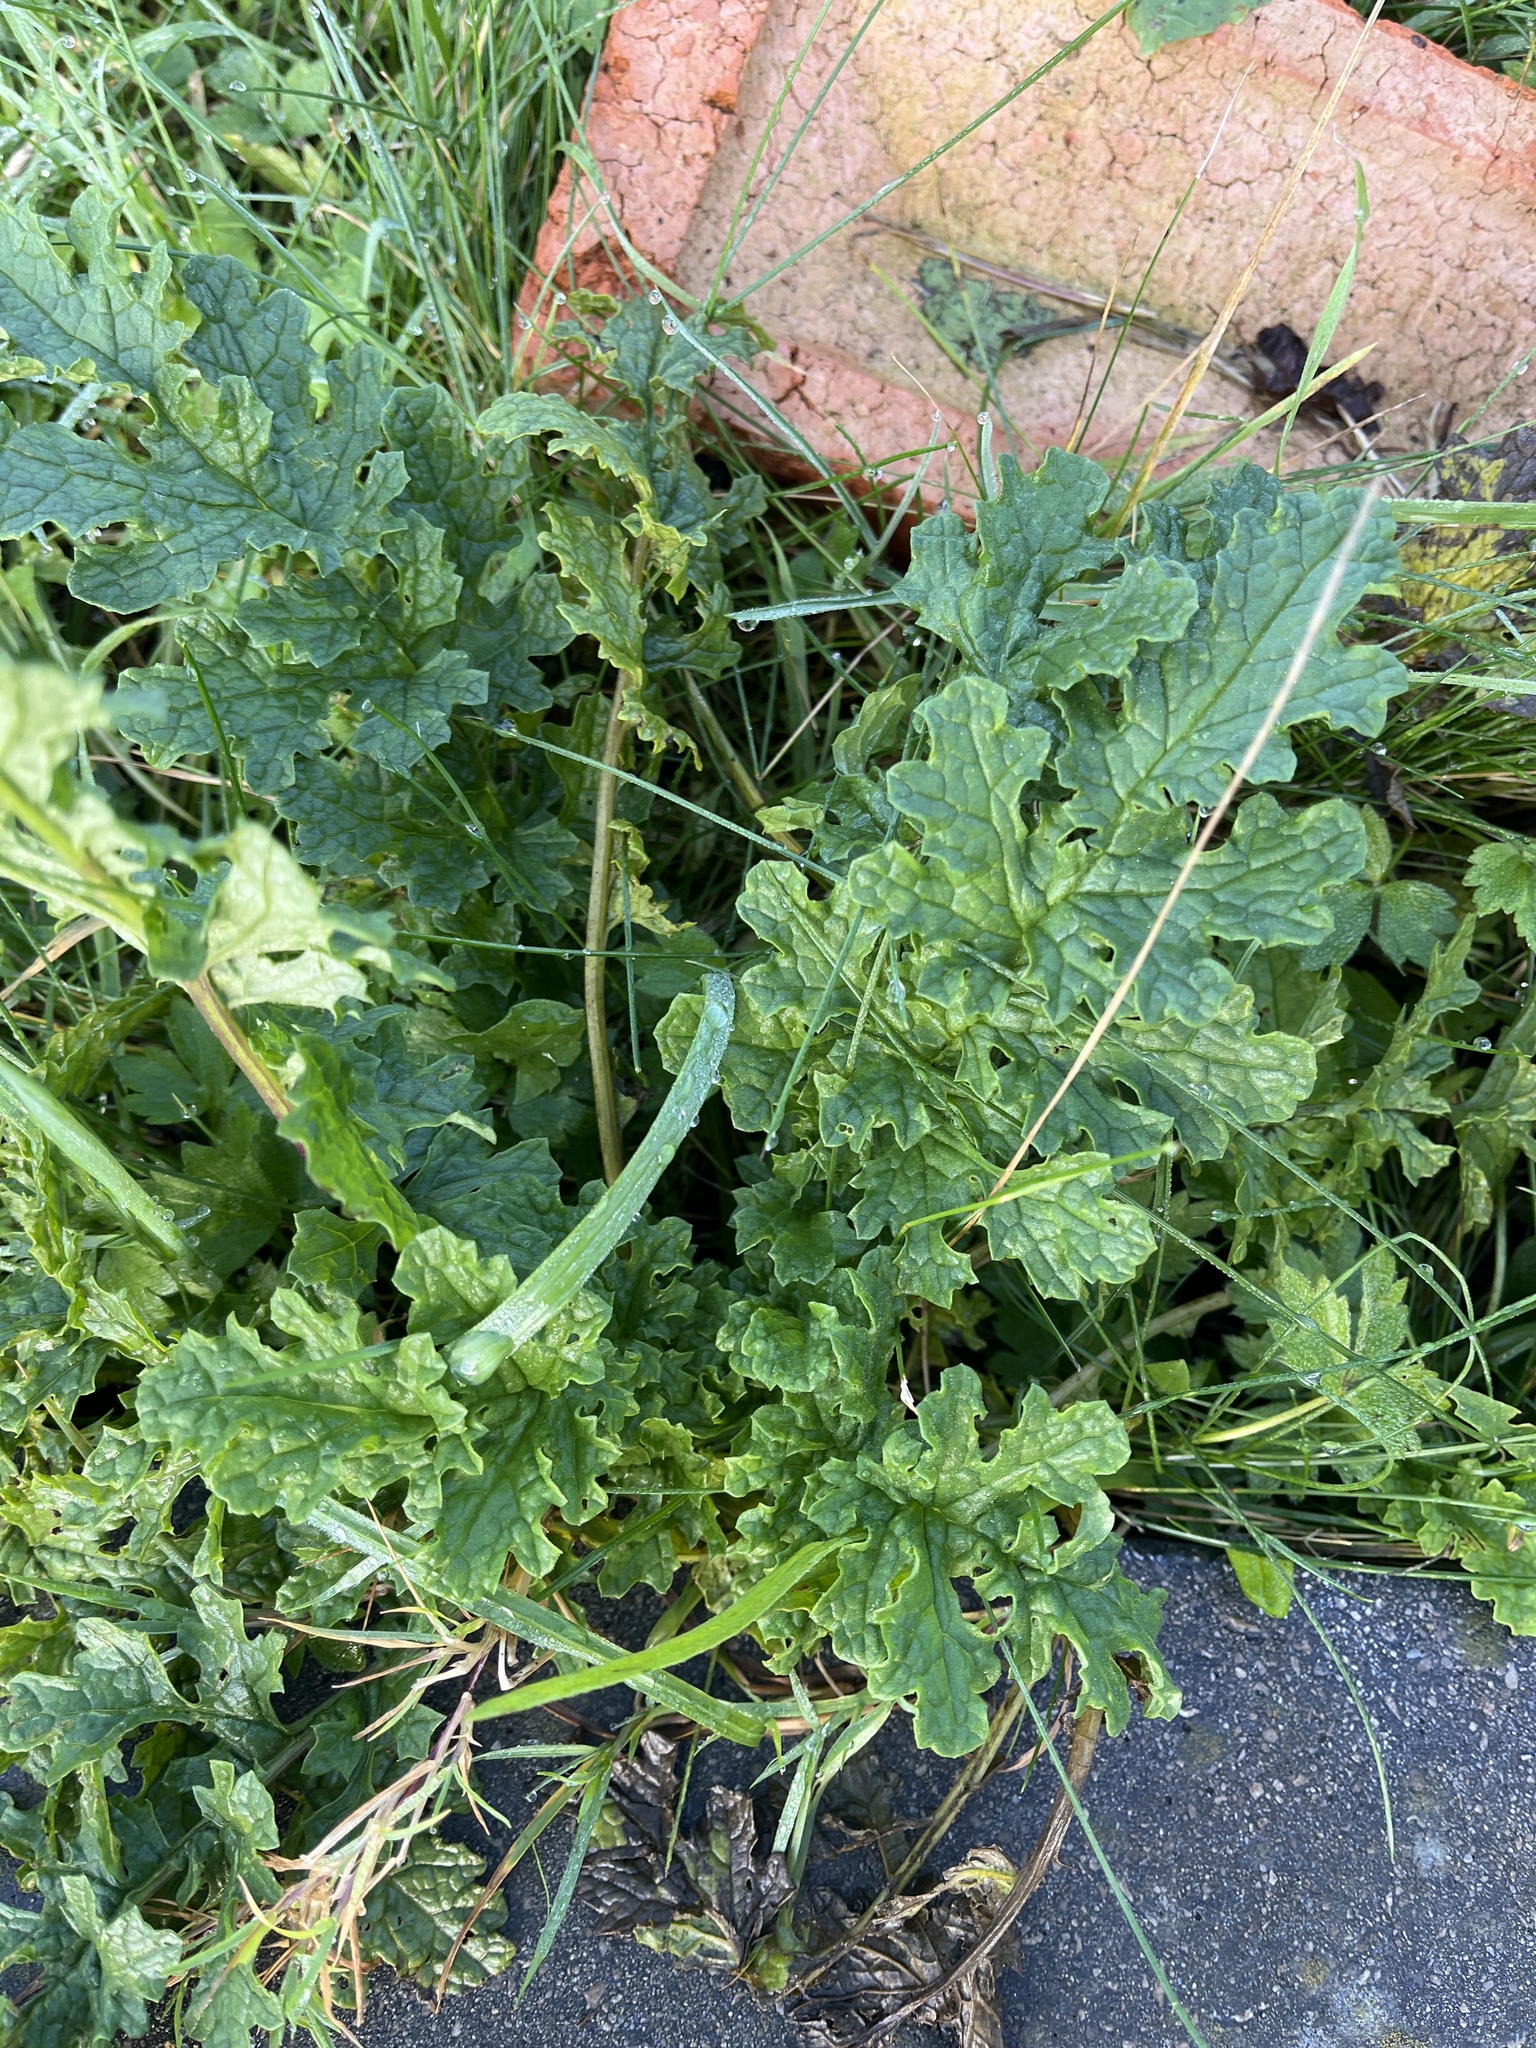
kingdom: Plantae
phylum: Tracheophyta
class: Magnoliopsida
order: Asterales
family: Asteraceae
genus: Jacobaea
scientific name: Jacobaea vulgaris
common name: Stinking willie
